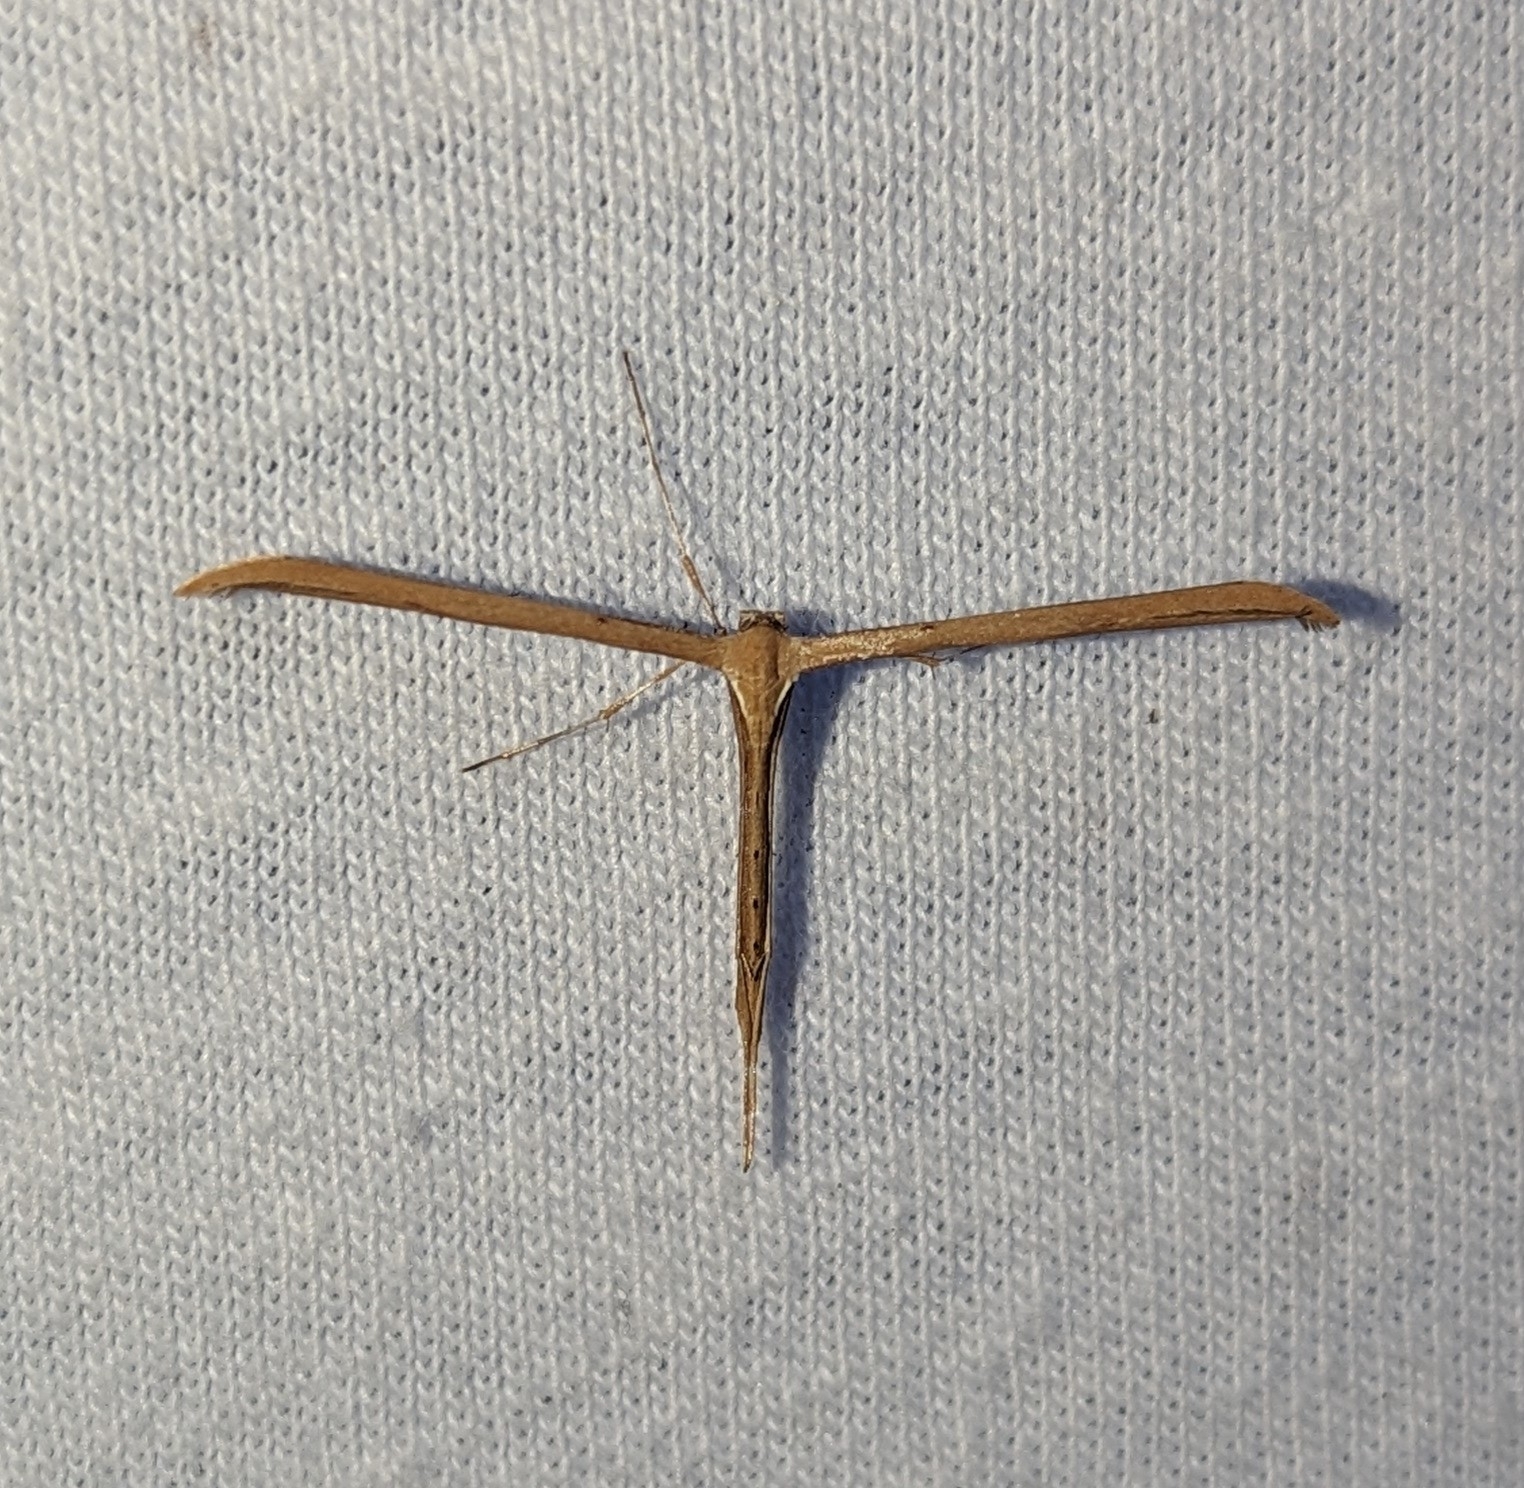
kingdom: Animalia
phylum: Arthropoda
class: Insecta
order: Lepidoptera
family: Pterophoridae
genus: Emmelina
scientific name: Emmelina monodactyla
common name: Common plume
